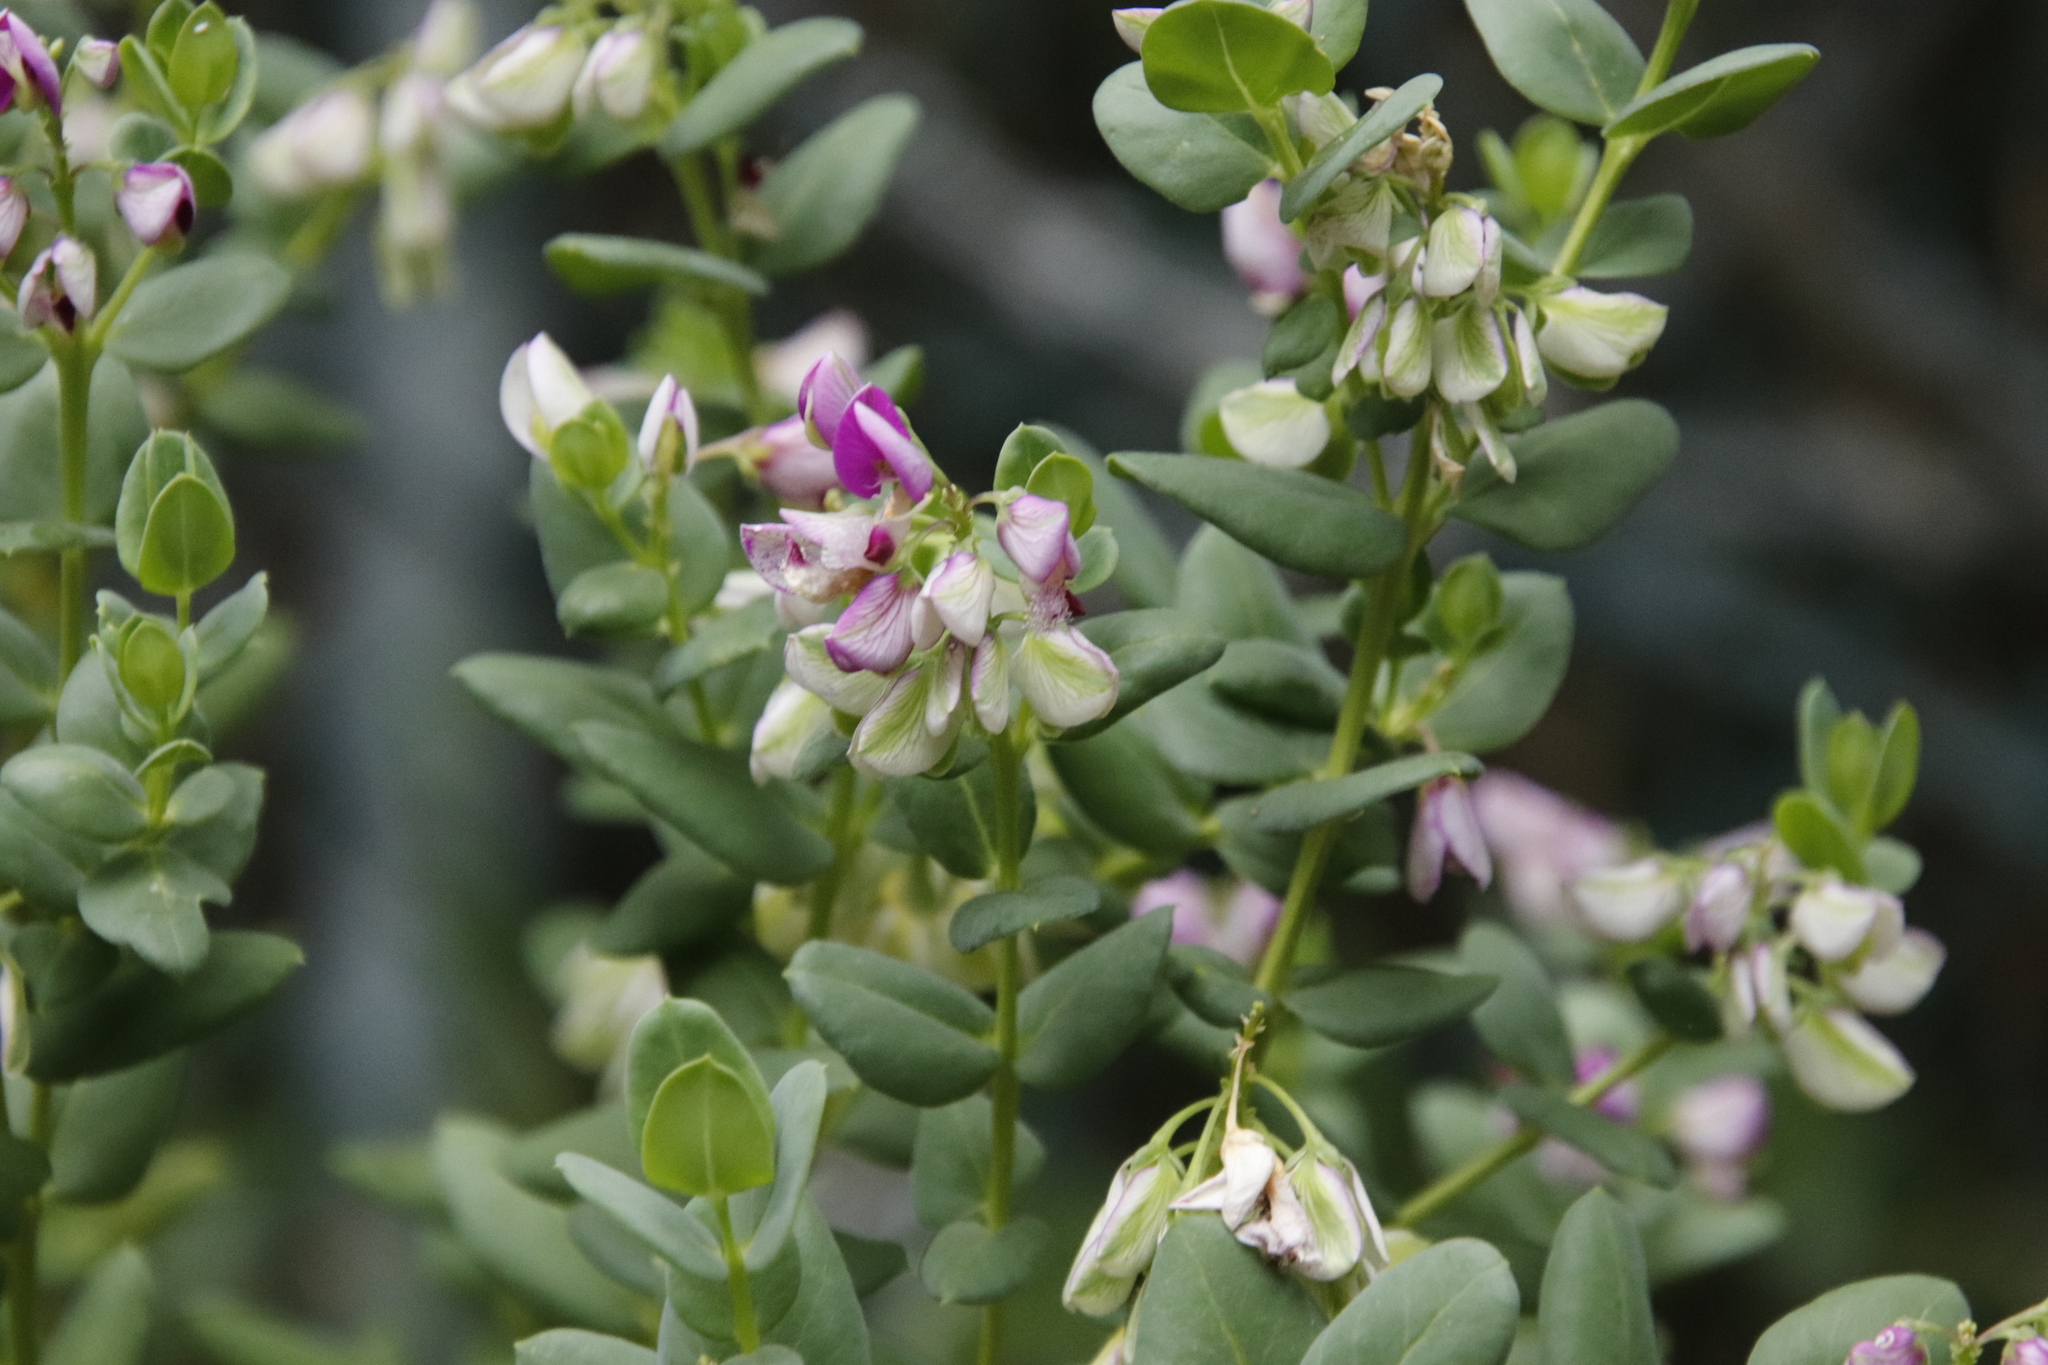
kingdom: Plantae
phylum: Tracheophyta
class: Magnoliopsida
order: Fabales
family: Polygalaceae
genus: Polygala
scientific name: Polygala fruticosa
